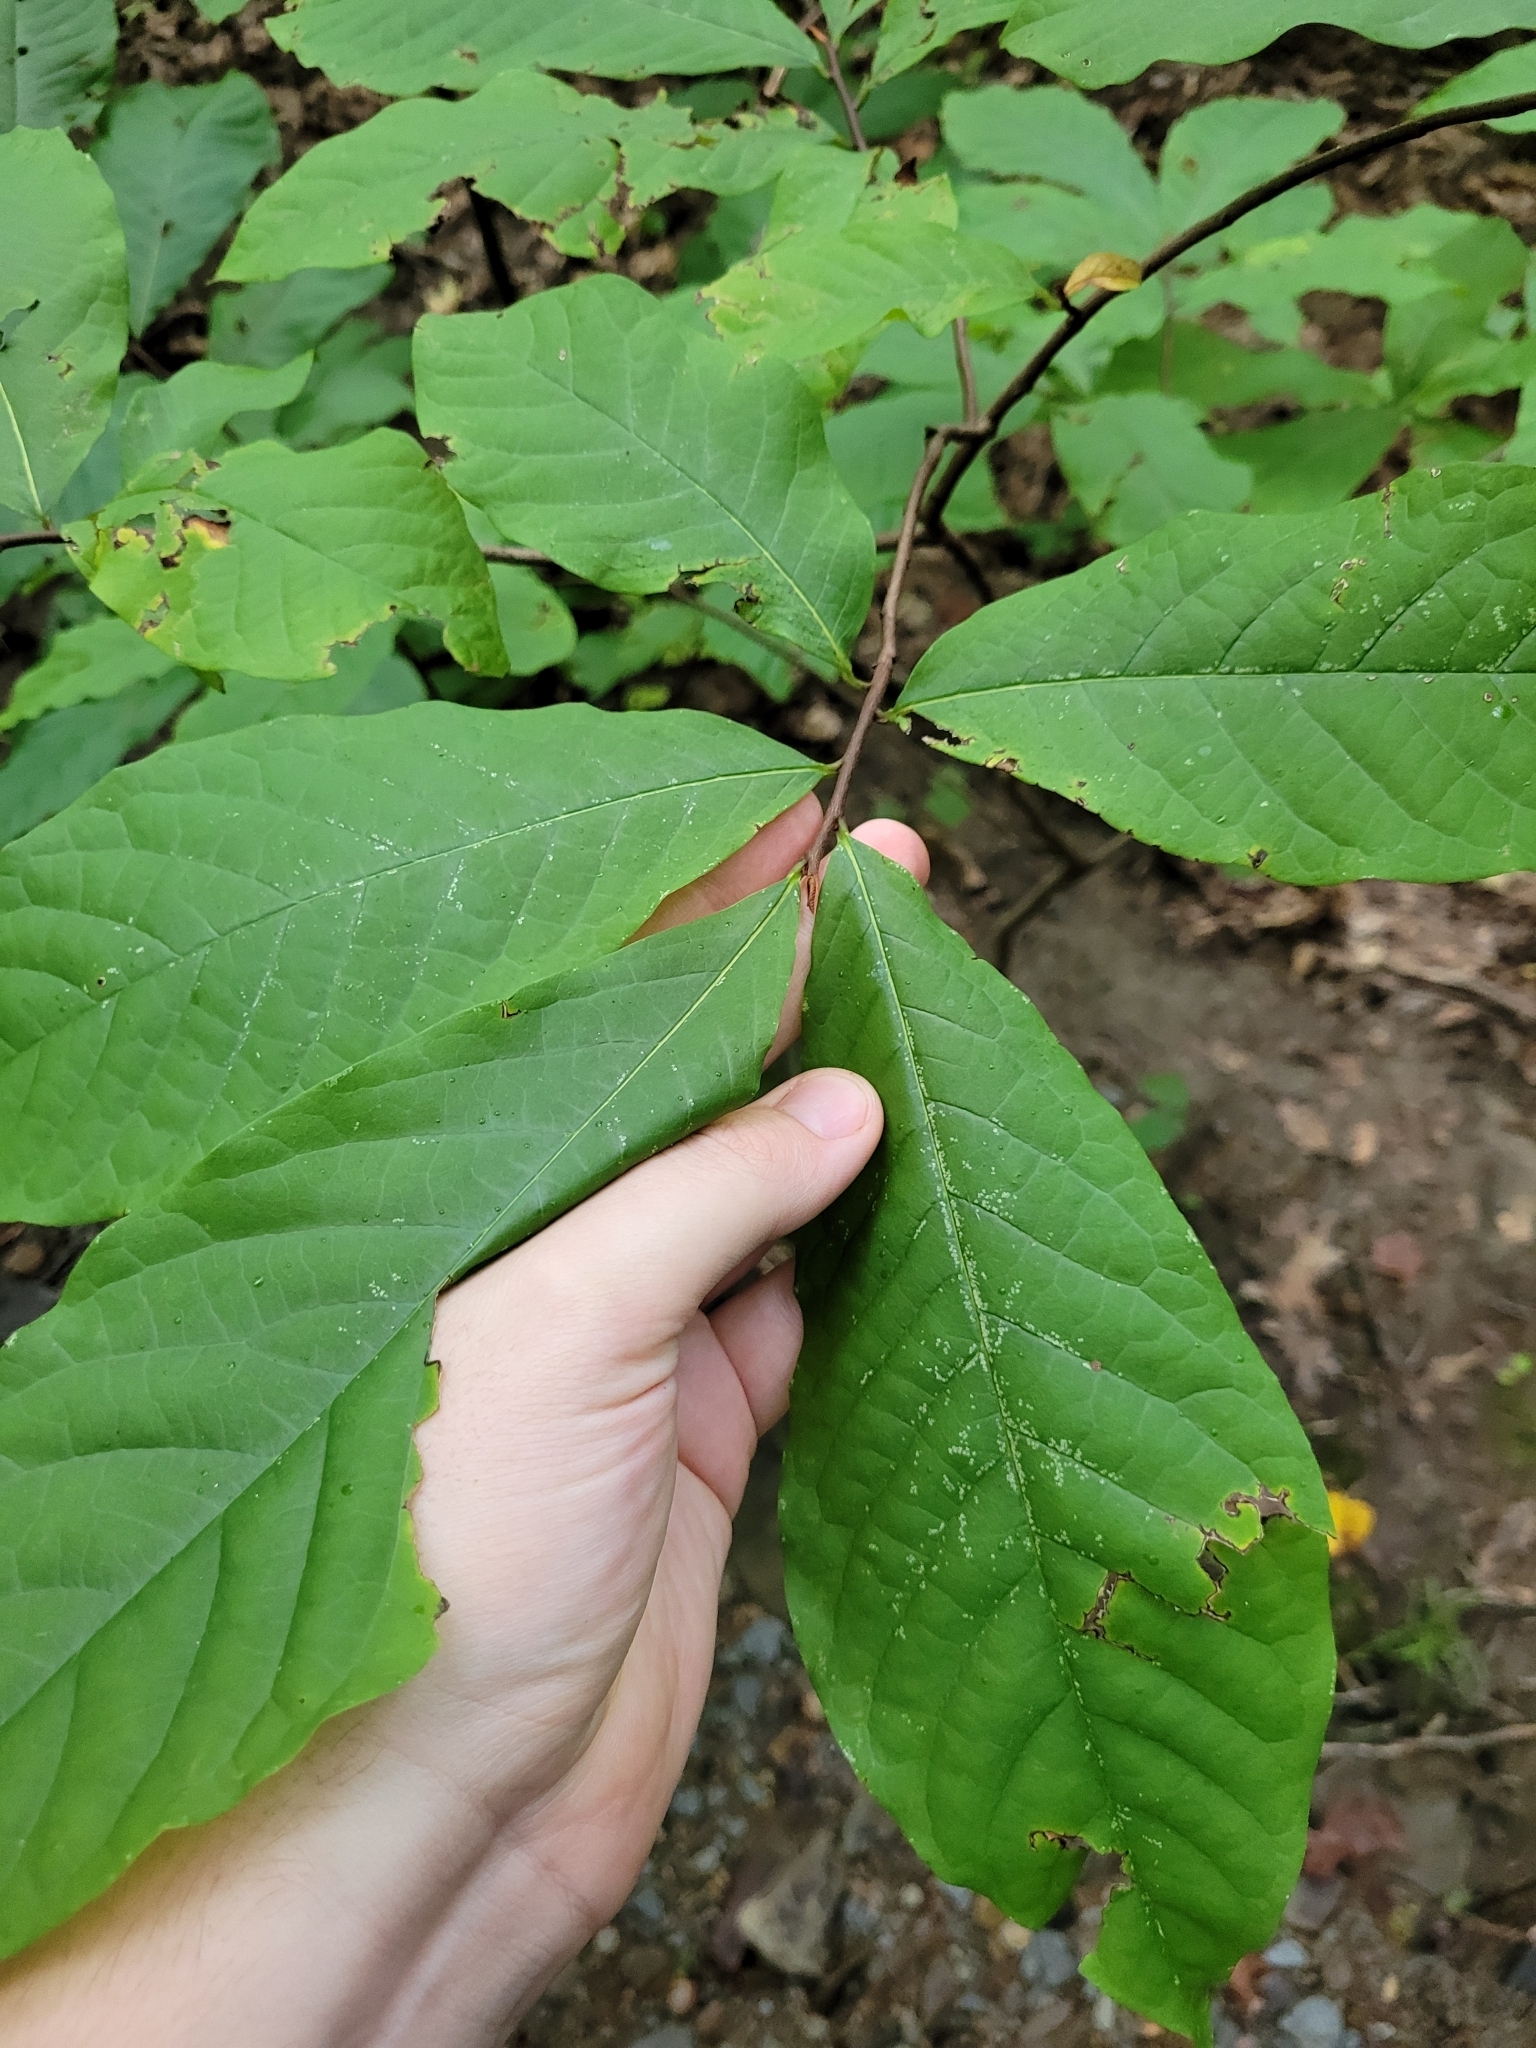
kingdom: Plantae
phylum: Tracheophyta
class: Magnoliopsida
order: Magnoliales
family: Annonaceae
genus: Asimina
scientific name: Asimina triloba
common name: Dog-banana
